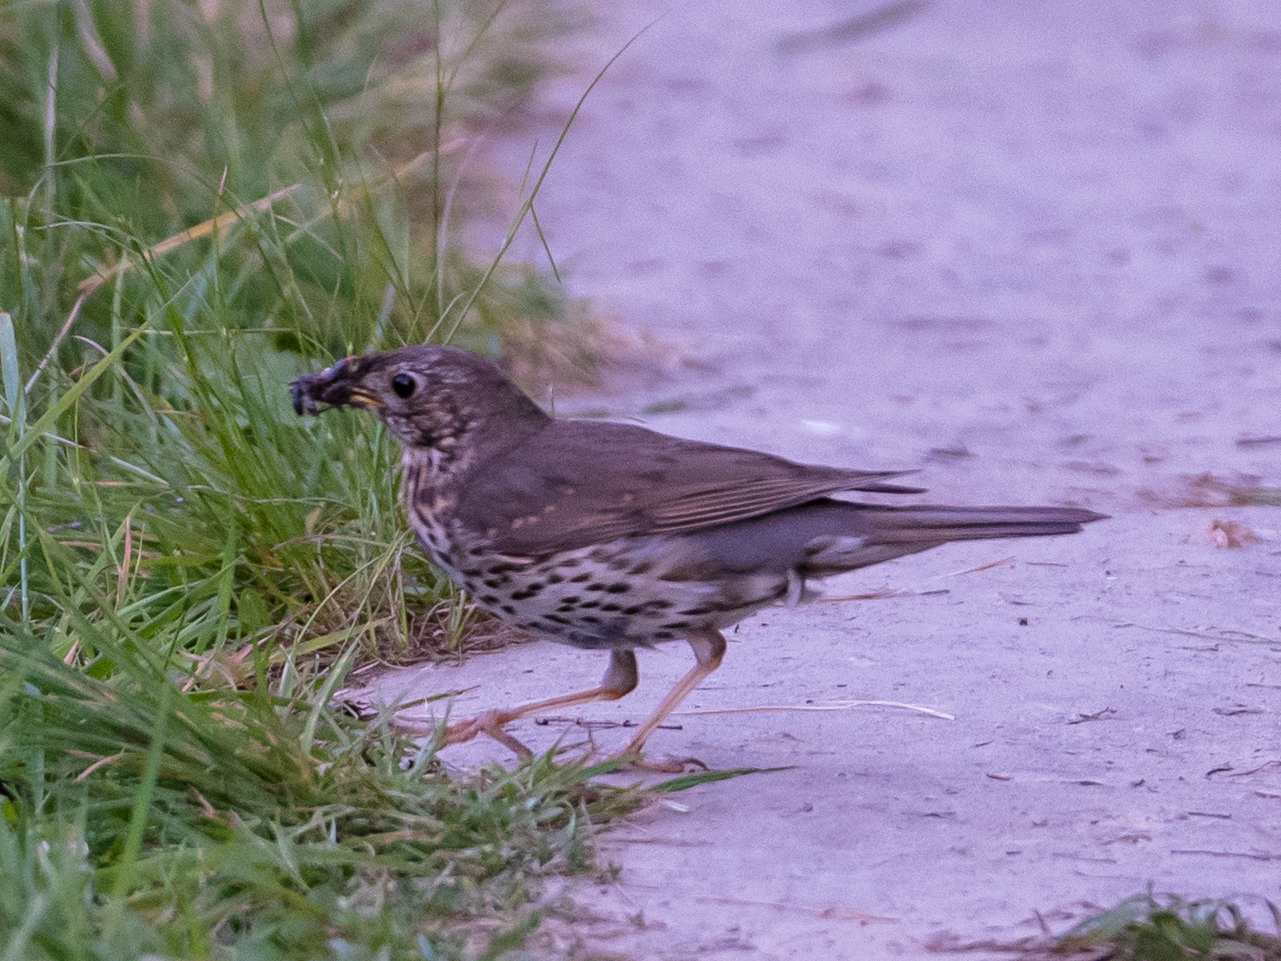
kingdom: Animalia
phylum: Chordata
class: Aves
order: Passeriformes
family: Turdidae
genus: Turdus
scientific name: Turdus philomelos
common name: Song thrush
